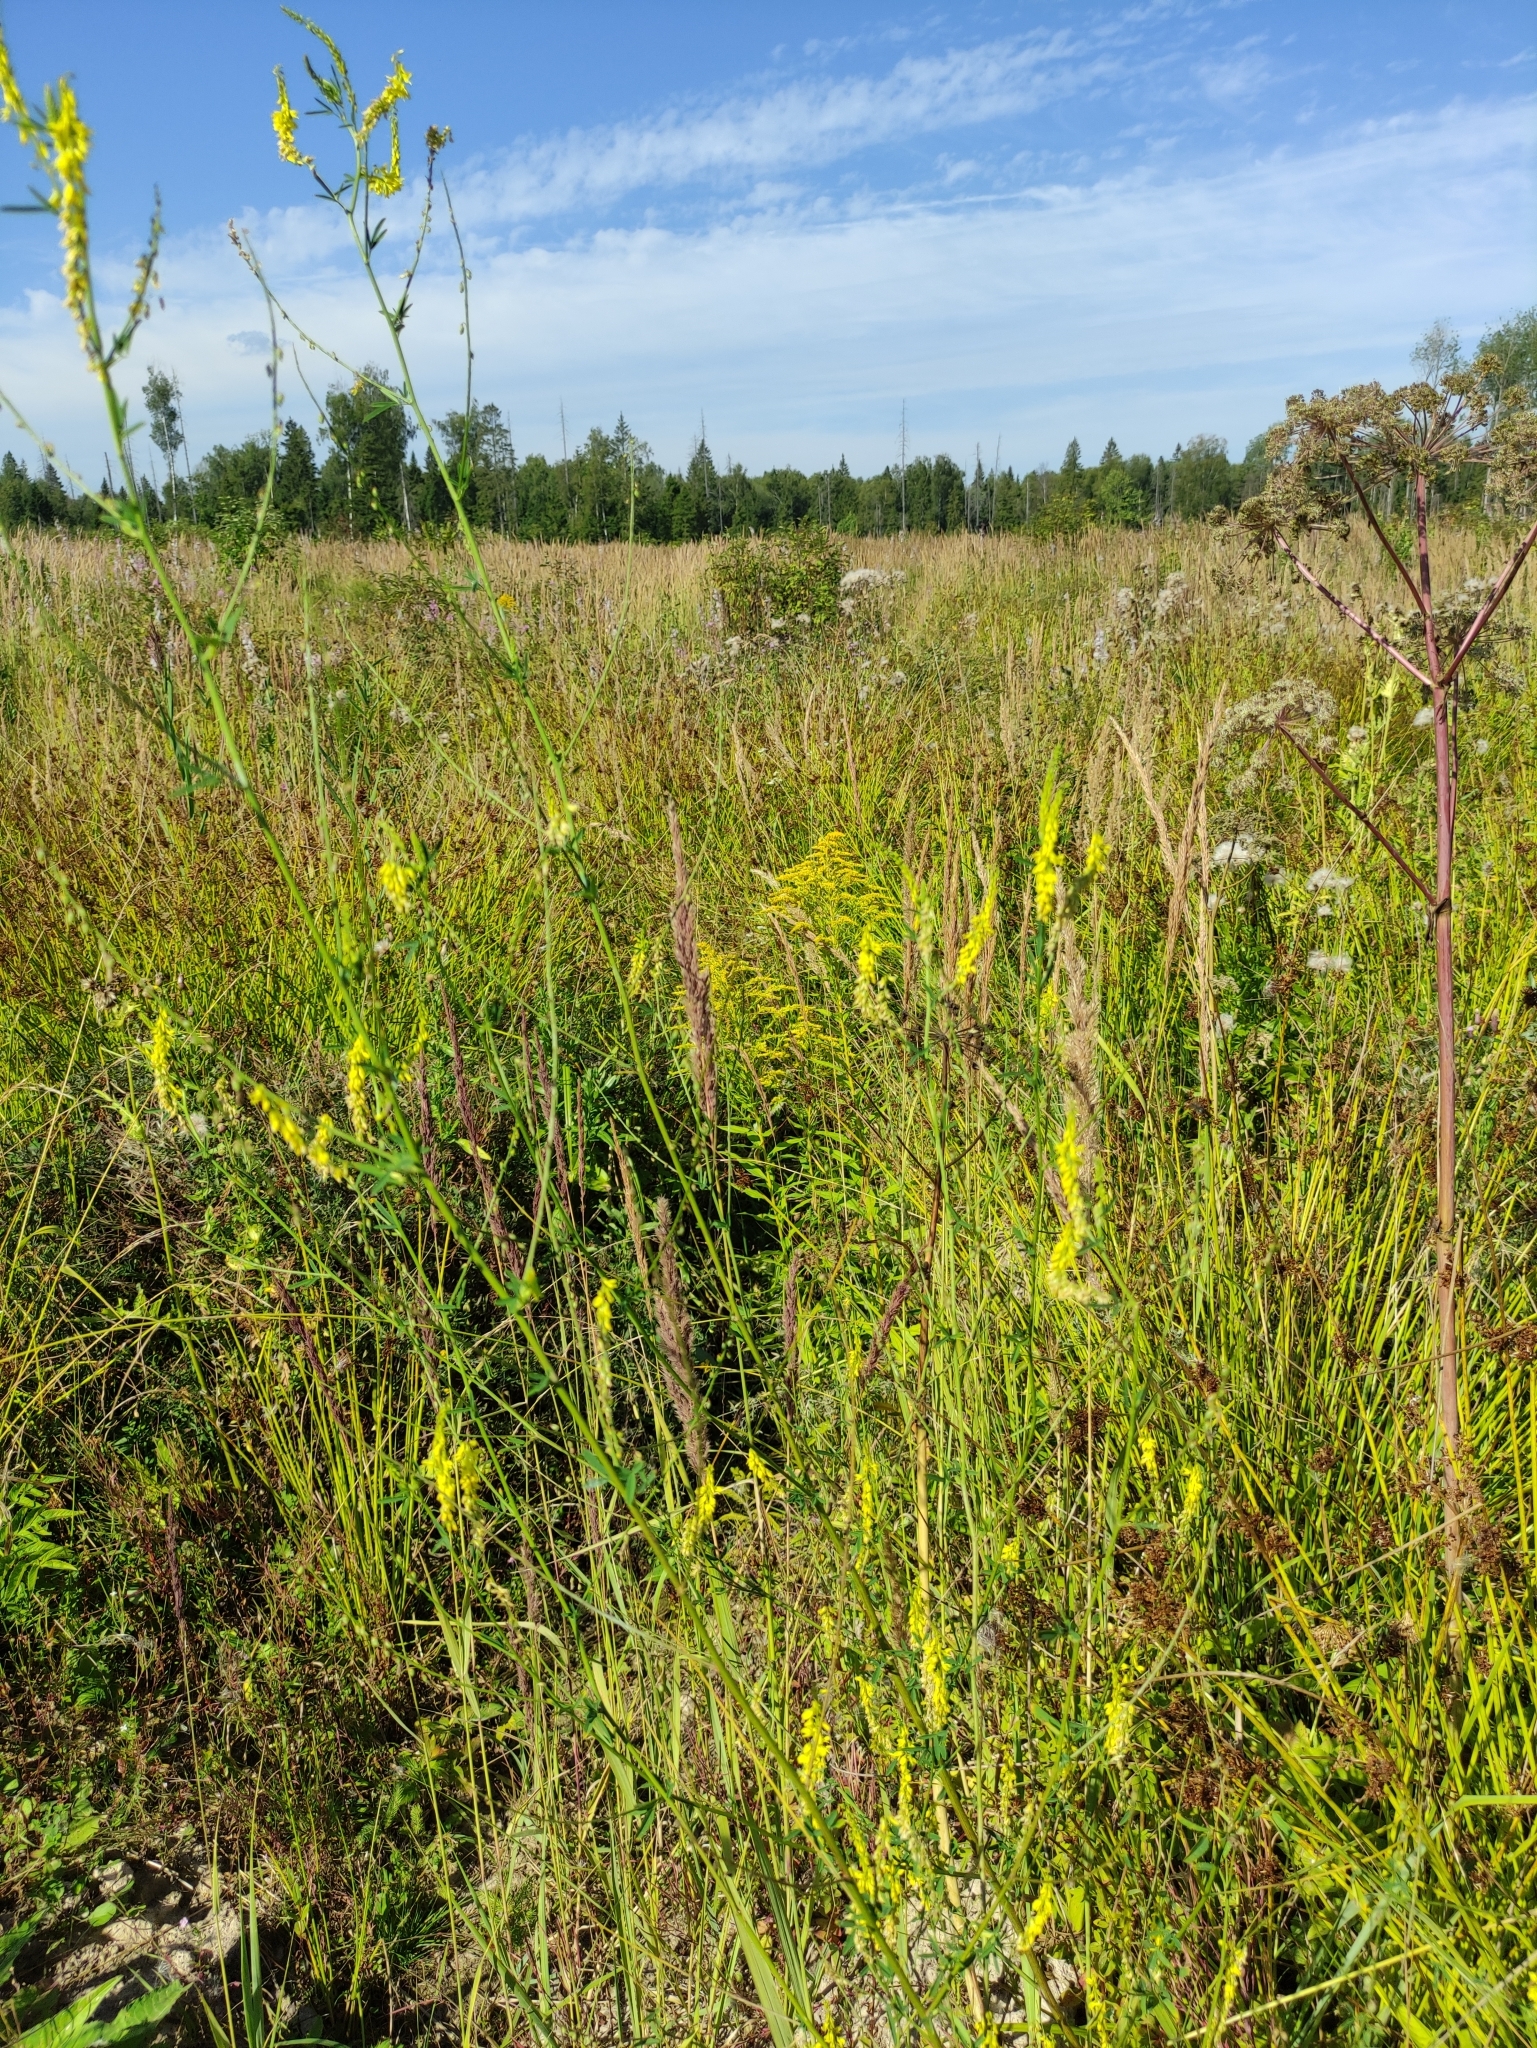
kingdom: Plantae
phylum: Tracheophyta
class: Magnoliopsida
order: Fabales
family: Fabaceae
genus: Melilotus
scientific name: Melilotus officinalis
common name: Sweetclover
